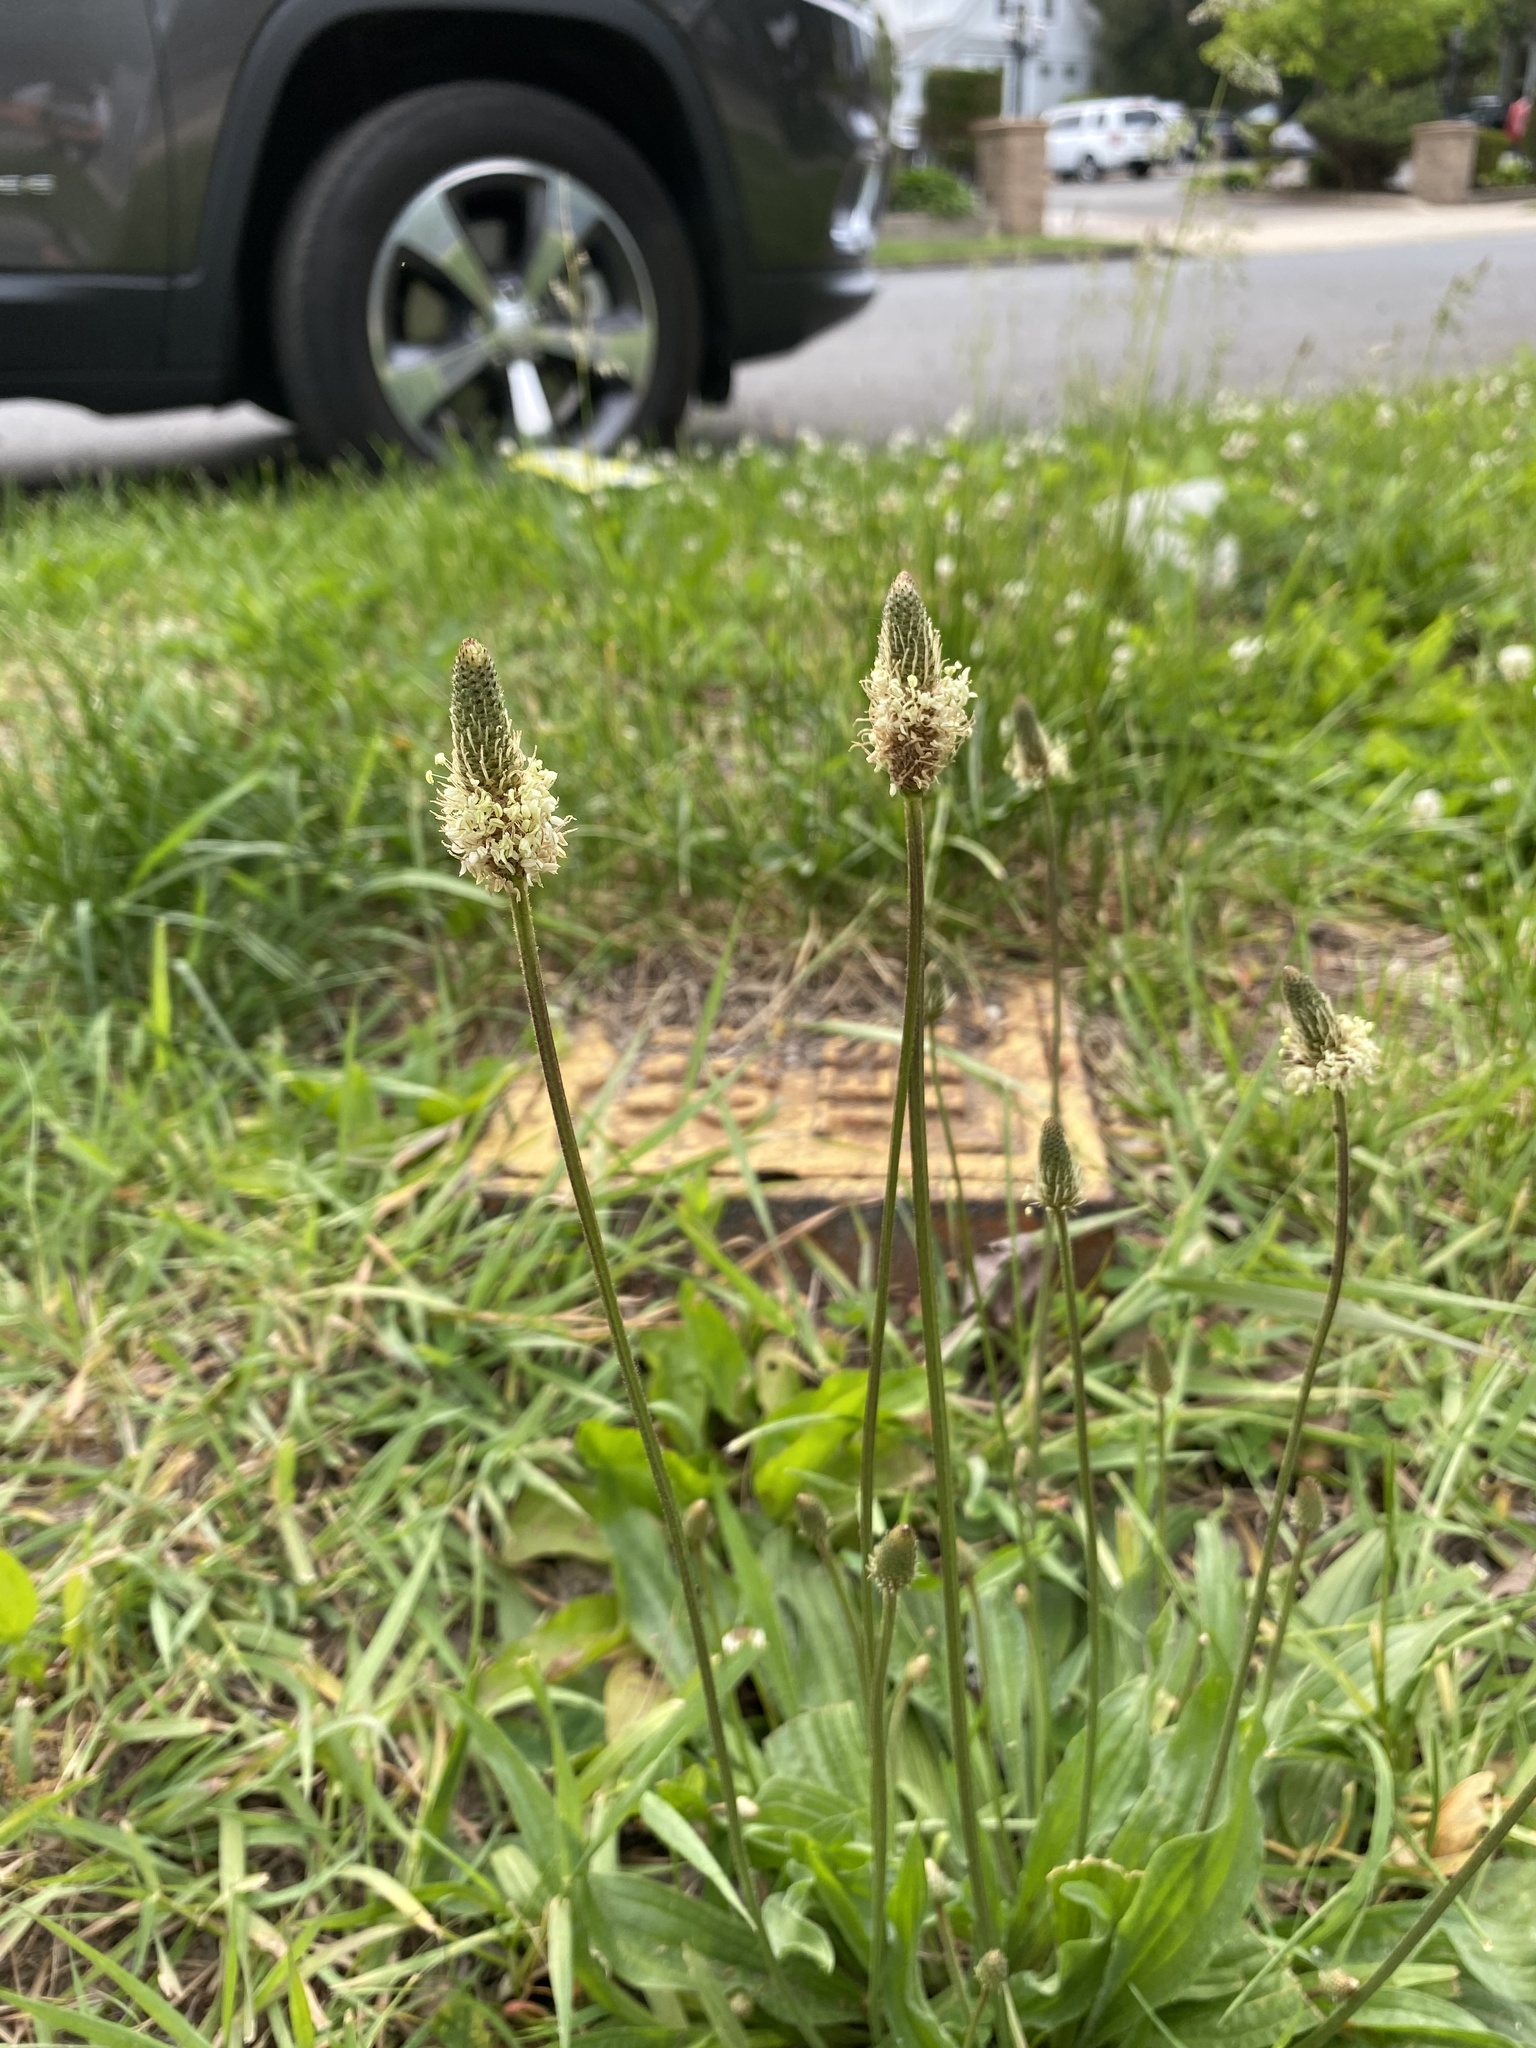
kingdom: Plantae
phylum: Tracheophyta
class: Magnoliopsida
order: Lamiales
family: Plantaginaceae
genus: Plantago
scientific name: Plantago lanceolata
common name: Ribwort plantain
